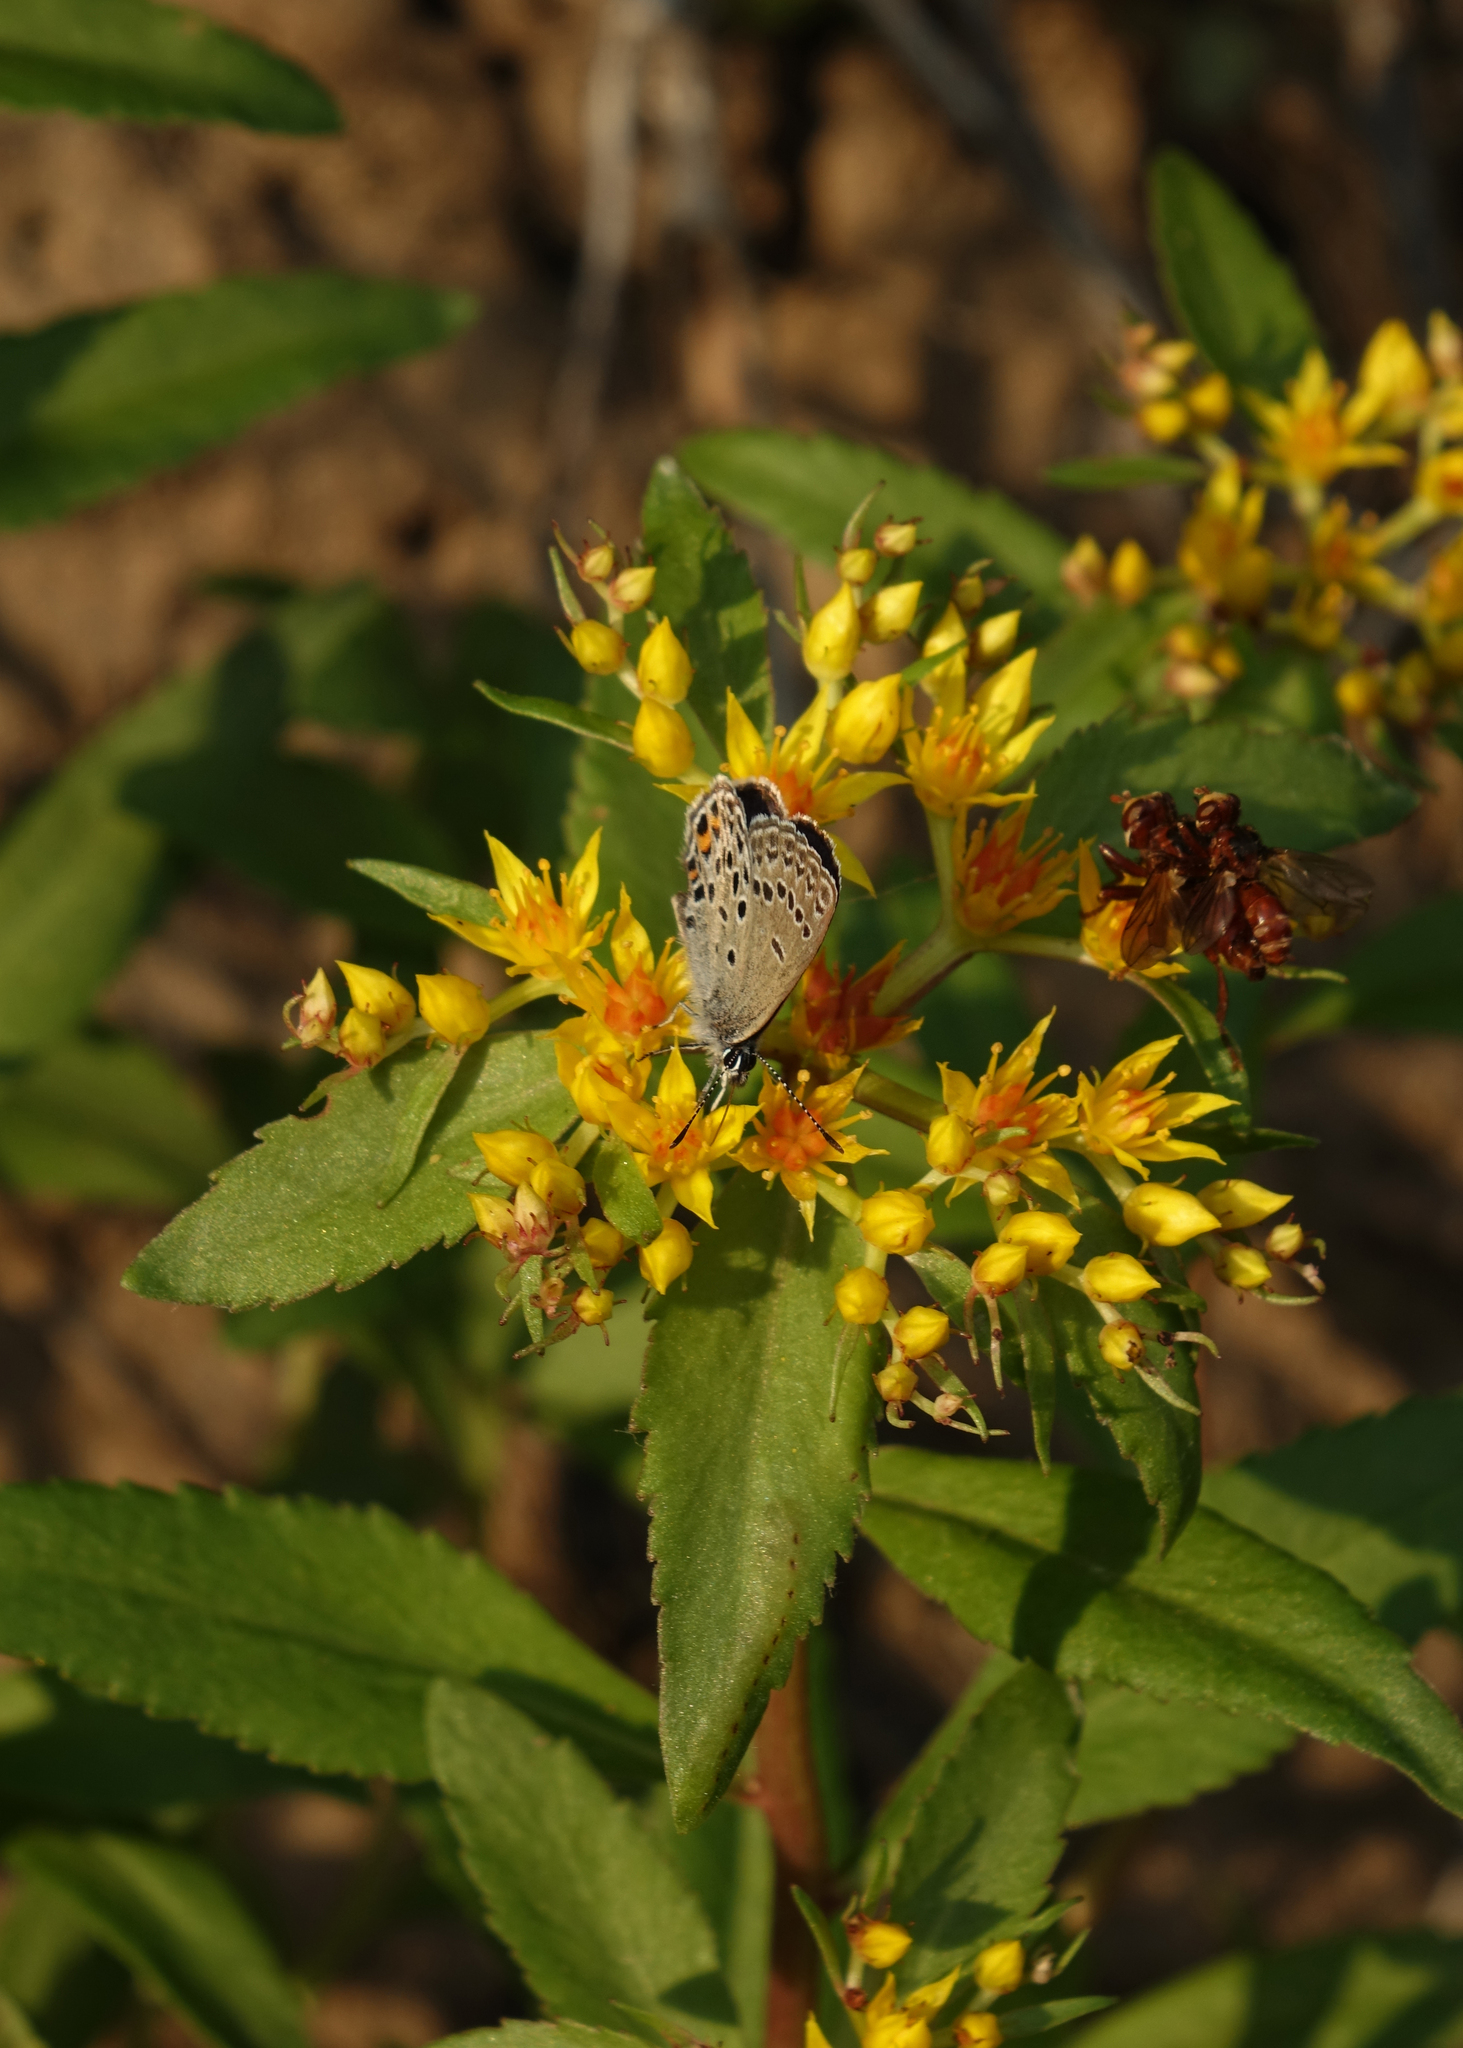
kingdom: Animalia
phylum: Arthropoda
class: Insecta
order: Lepidoptera
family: Lycaenidae
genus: Vacciniina
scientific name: Vacciniina optilete
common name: Cranberry blue
